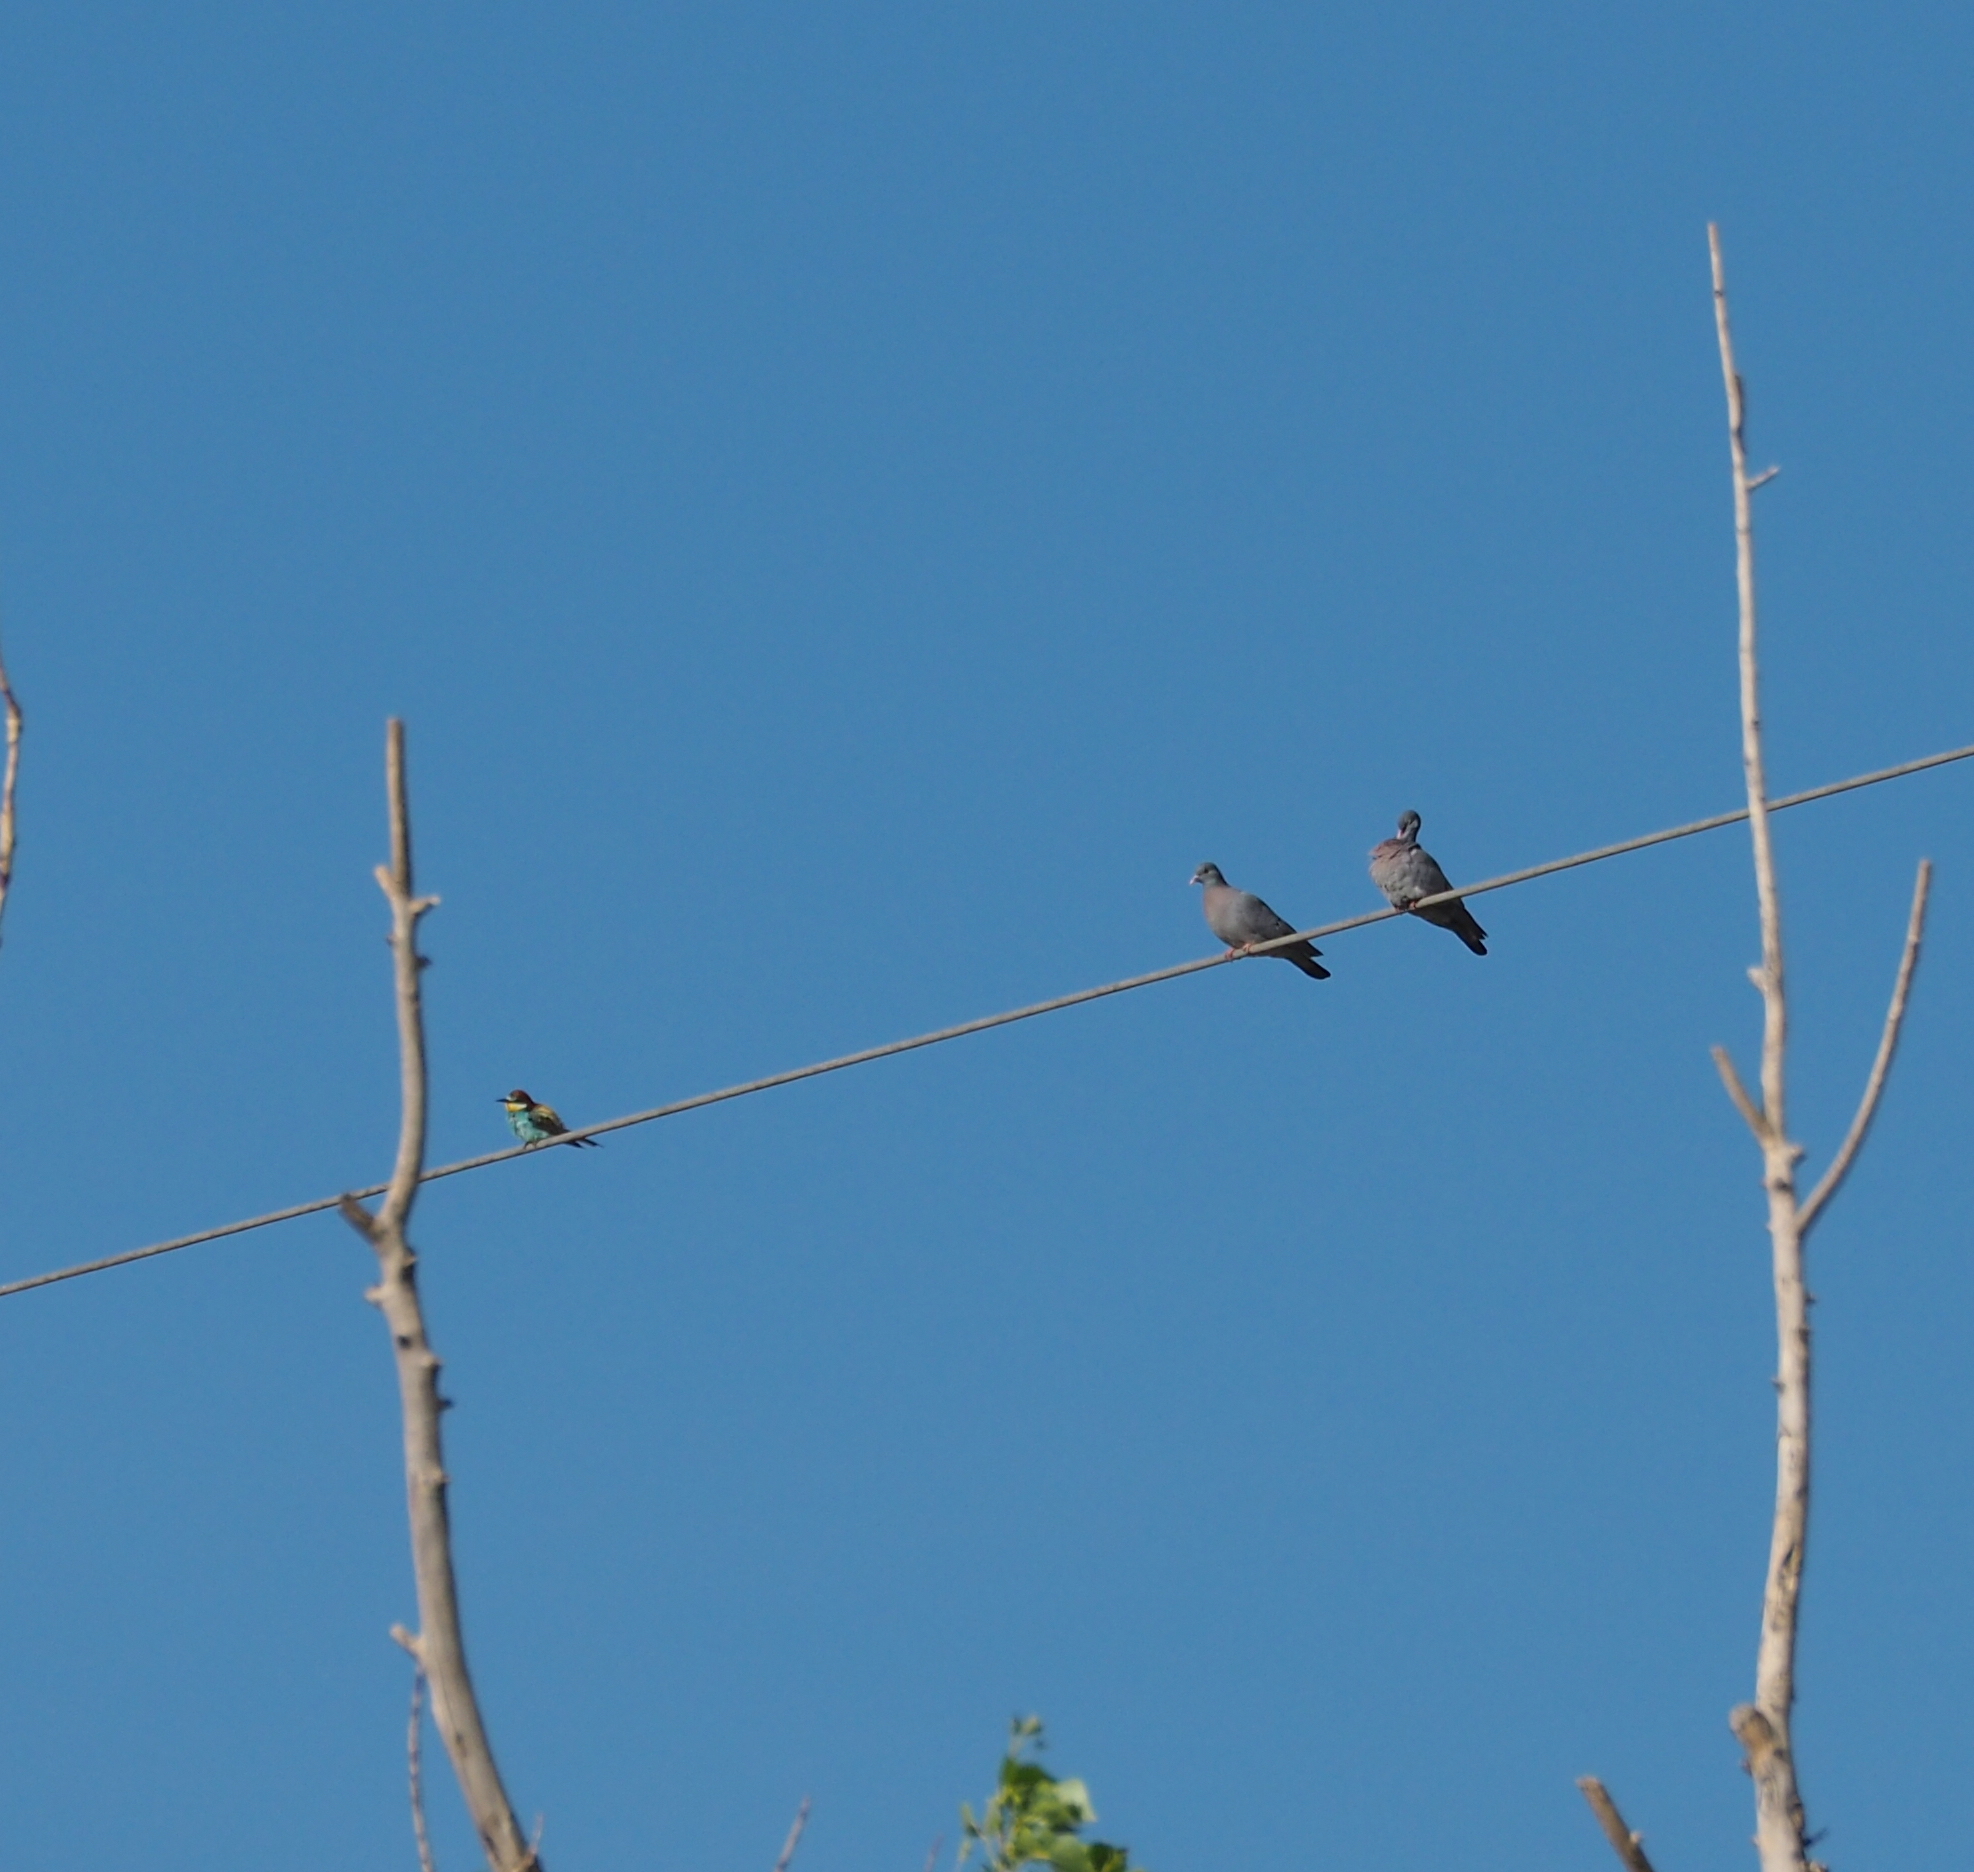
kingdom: Animalia
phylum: Chordata
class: Aves
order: Columbiformes
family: Columbidae
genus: Columba
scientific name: Columba oenas
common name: Stock dove
